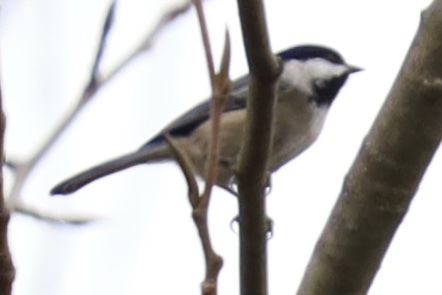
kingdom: Animalia
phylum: Chordata
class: Aves
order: Passeriformes
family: Paridae
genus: Poecile
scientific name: Poecile atricapillus
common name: Black-capped chickadee
